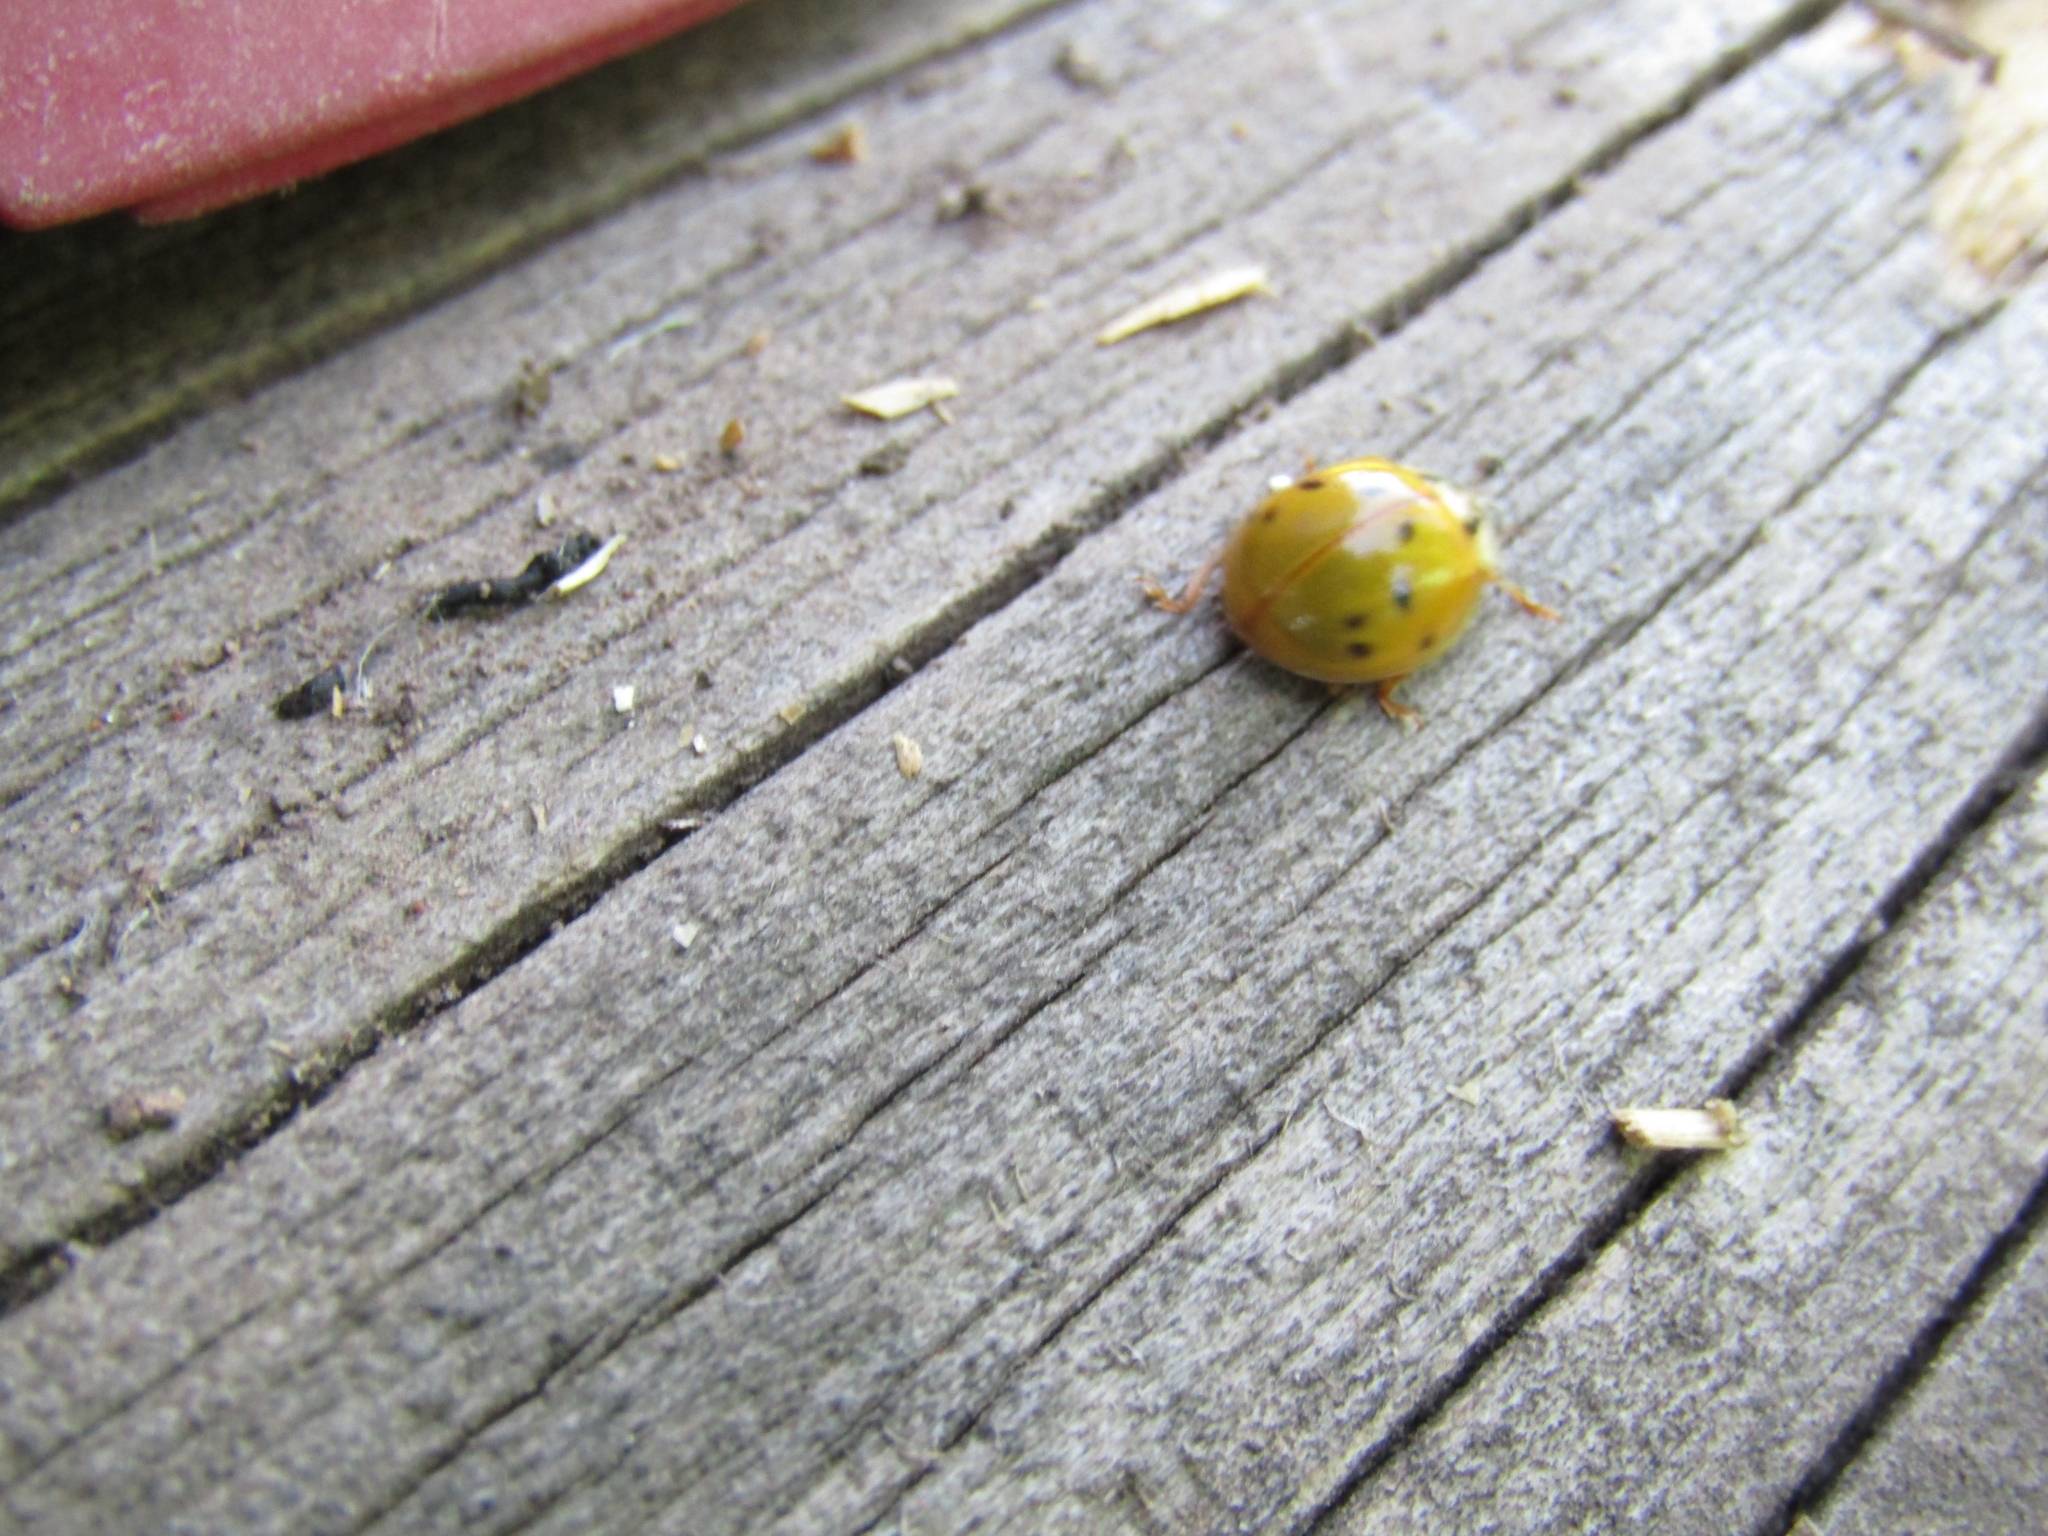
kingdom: Animalia
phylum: Arthropoda
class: Insecta
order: Coleoptera
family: Coccinellidae
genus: Harmonia
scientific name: Harmonia axyridis
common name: Harlequin ladybird
